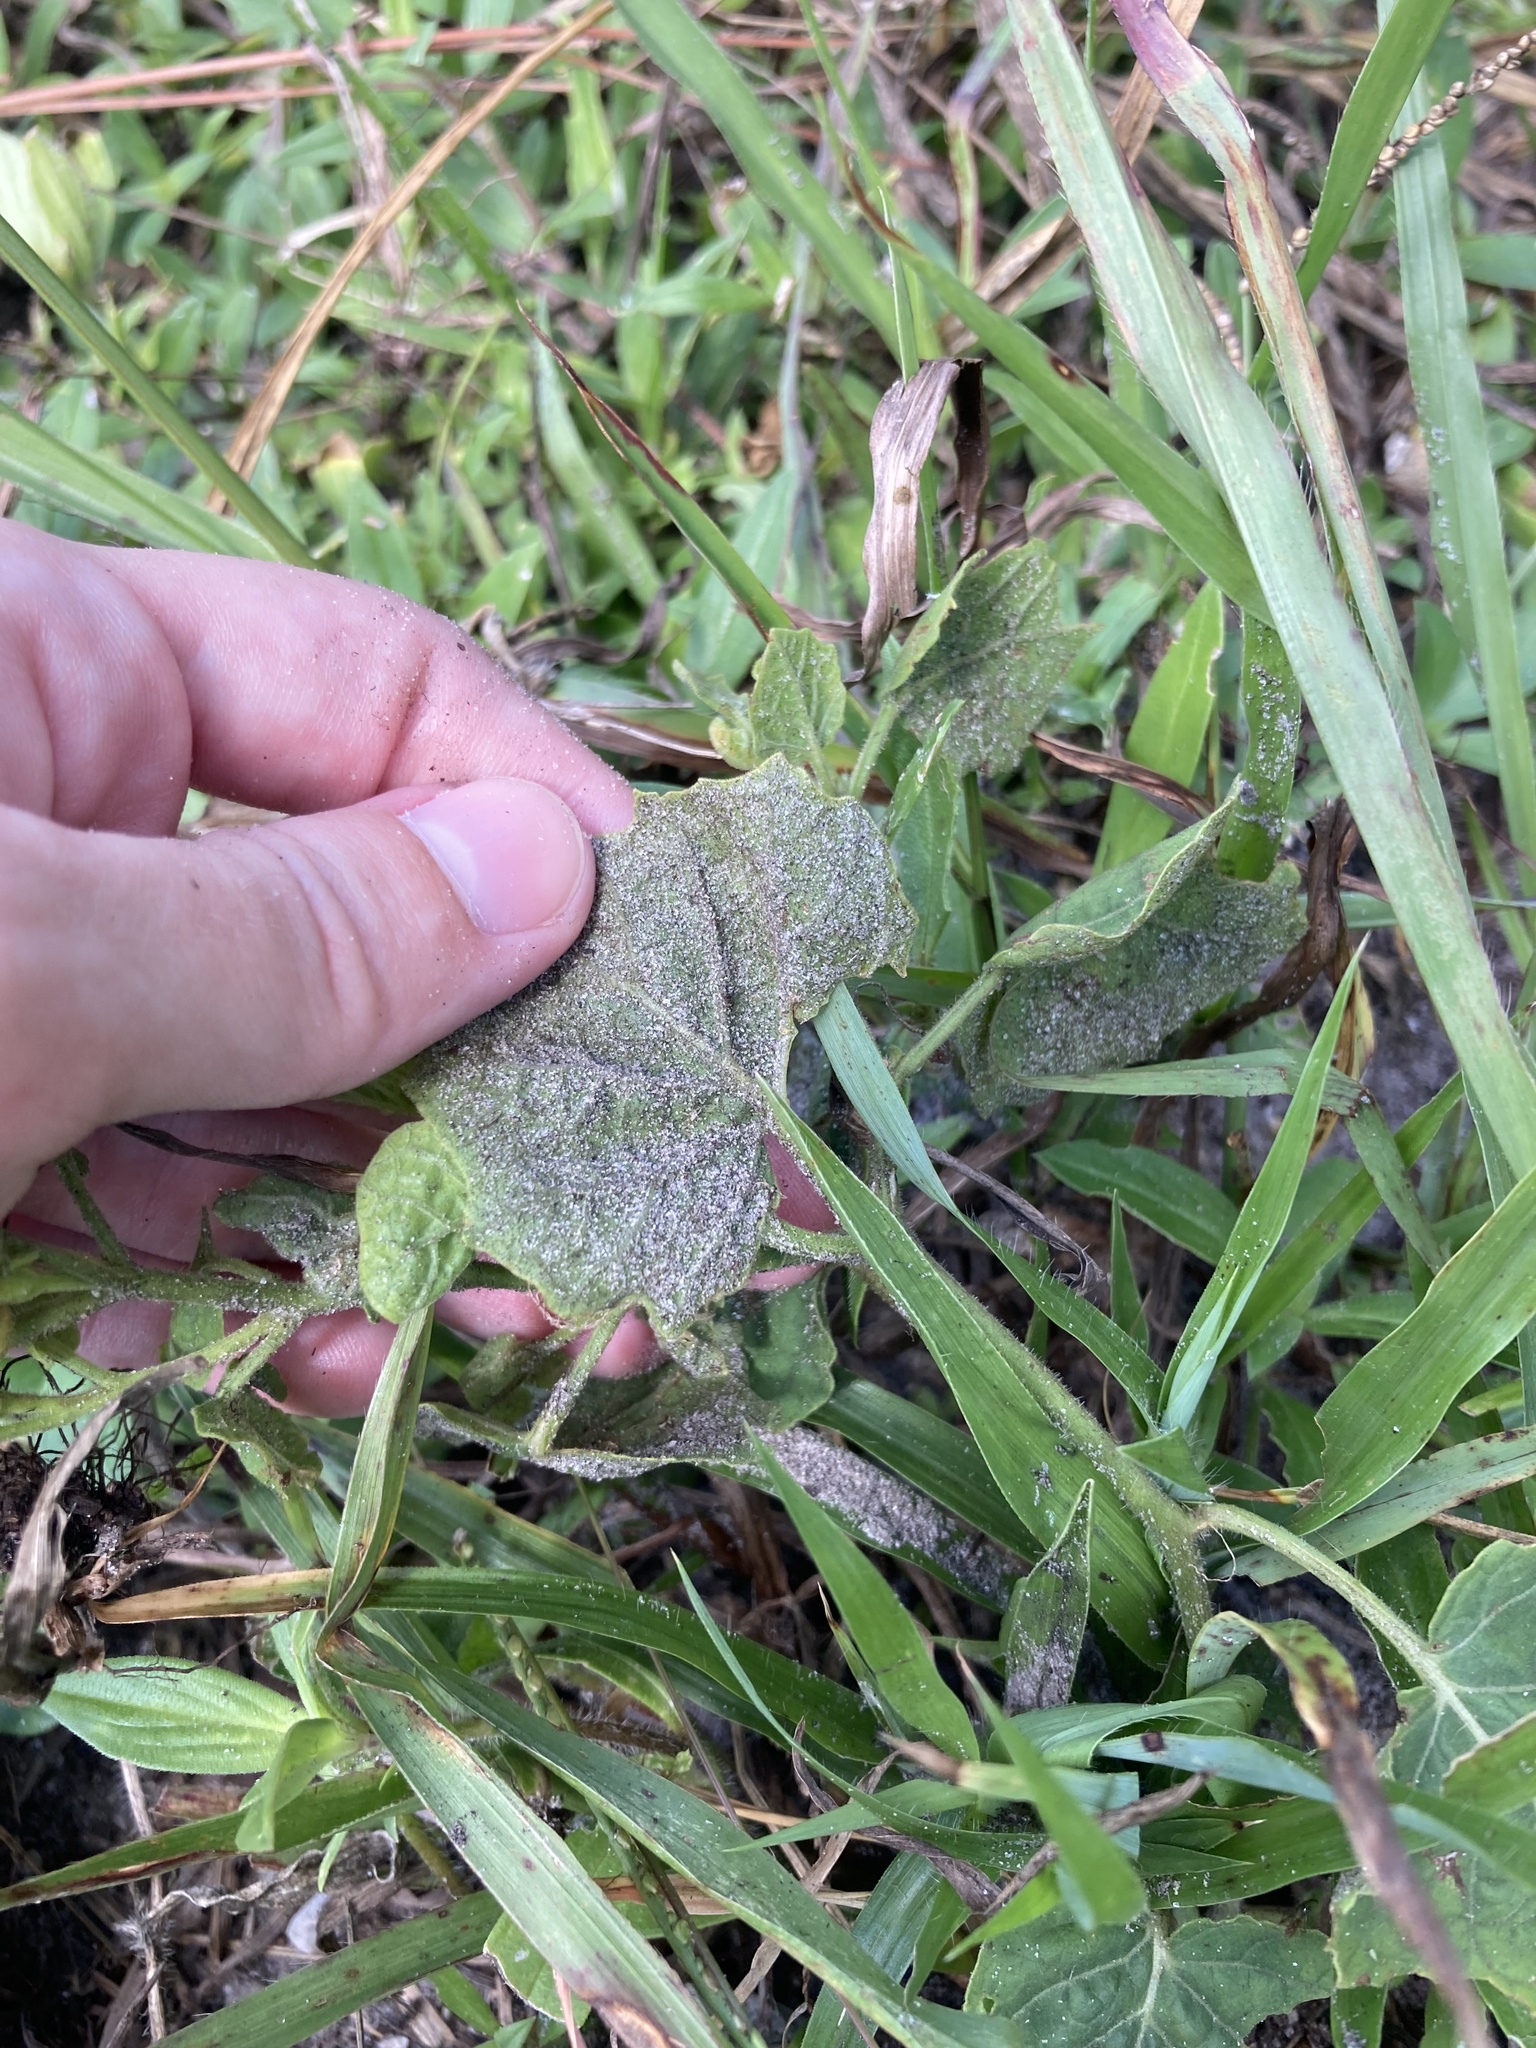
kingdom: Plantae
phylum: Tracheophyta
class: Magnoliopsida
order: Solanales
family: Solanaceae
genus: Physalis
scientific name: Physalis arenicola
